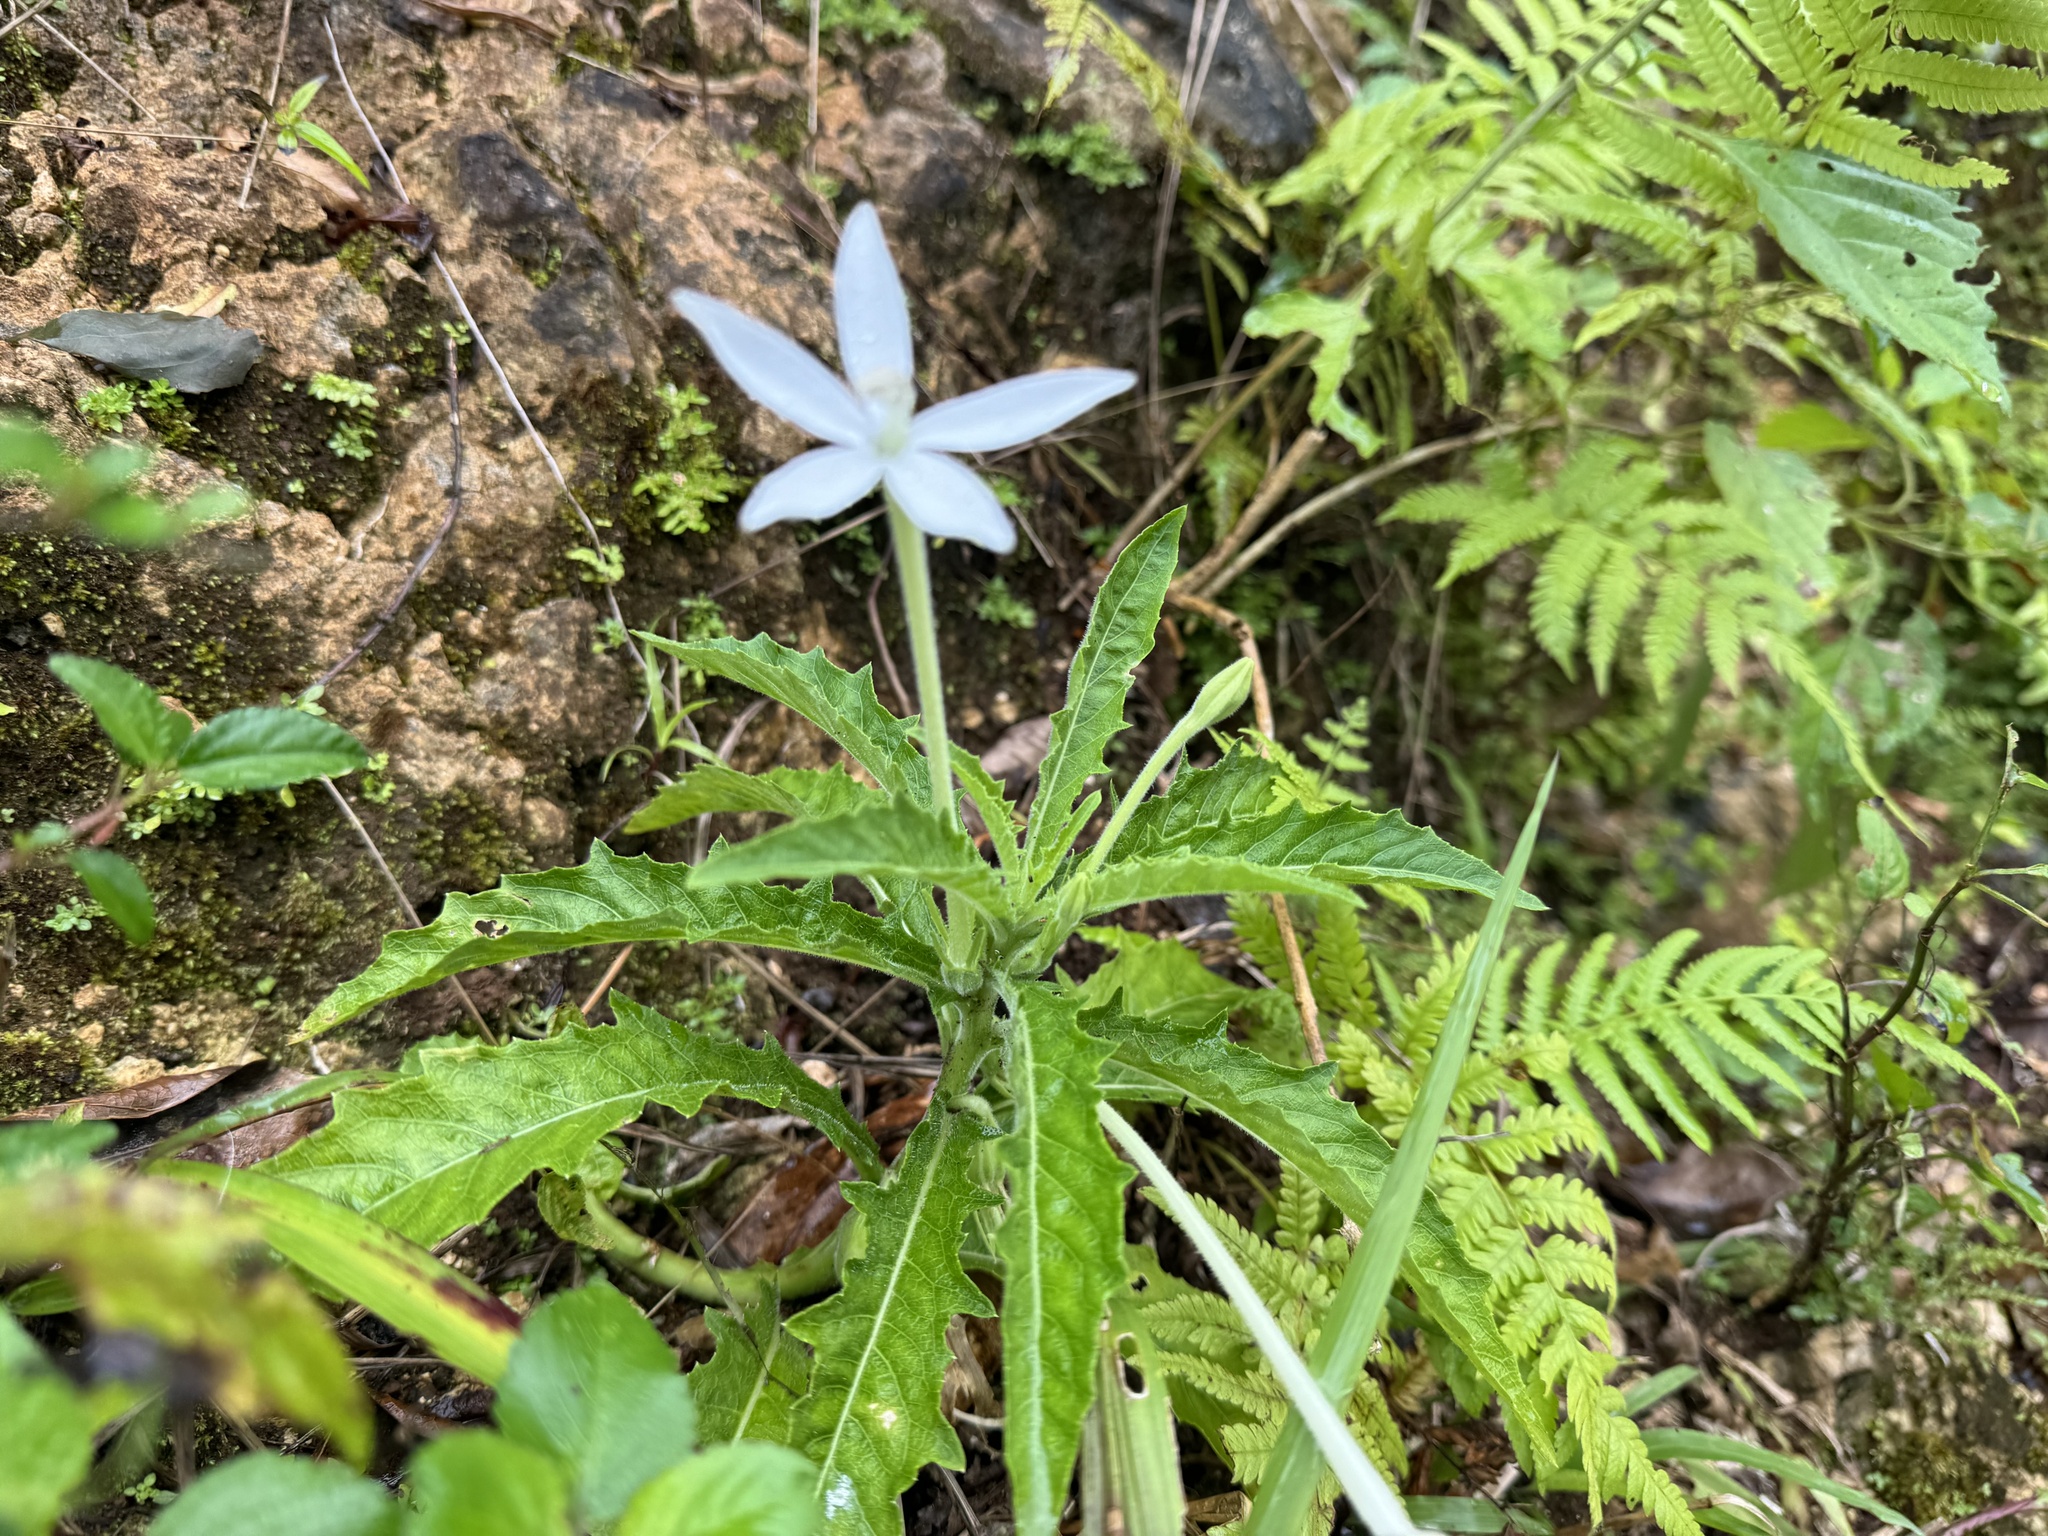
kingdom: Plantae
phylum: Tracheophyta
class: Magnoliopsida
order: Asterales
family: Campanulaceae
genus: Hippobroma
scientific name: Hippobroma longiflora
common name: Madamfate
